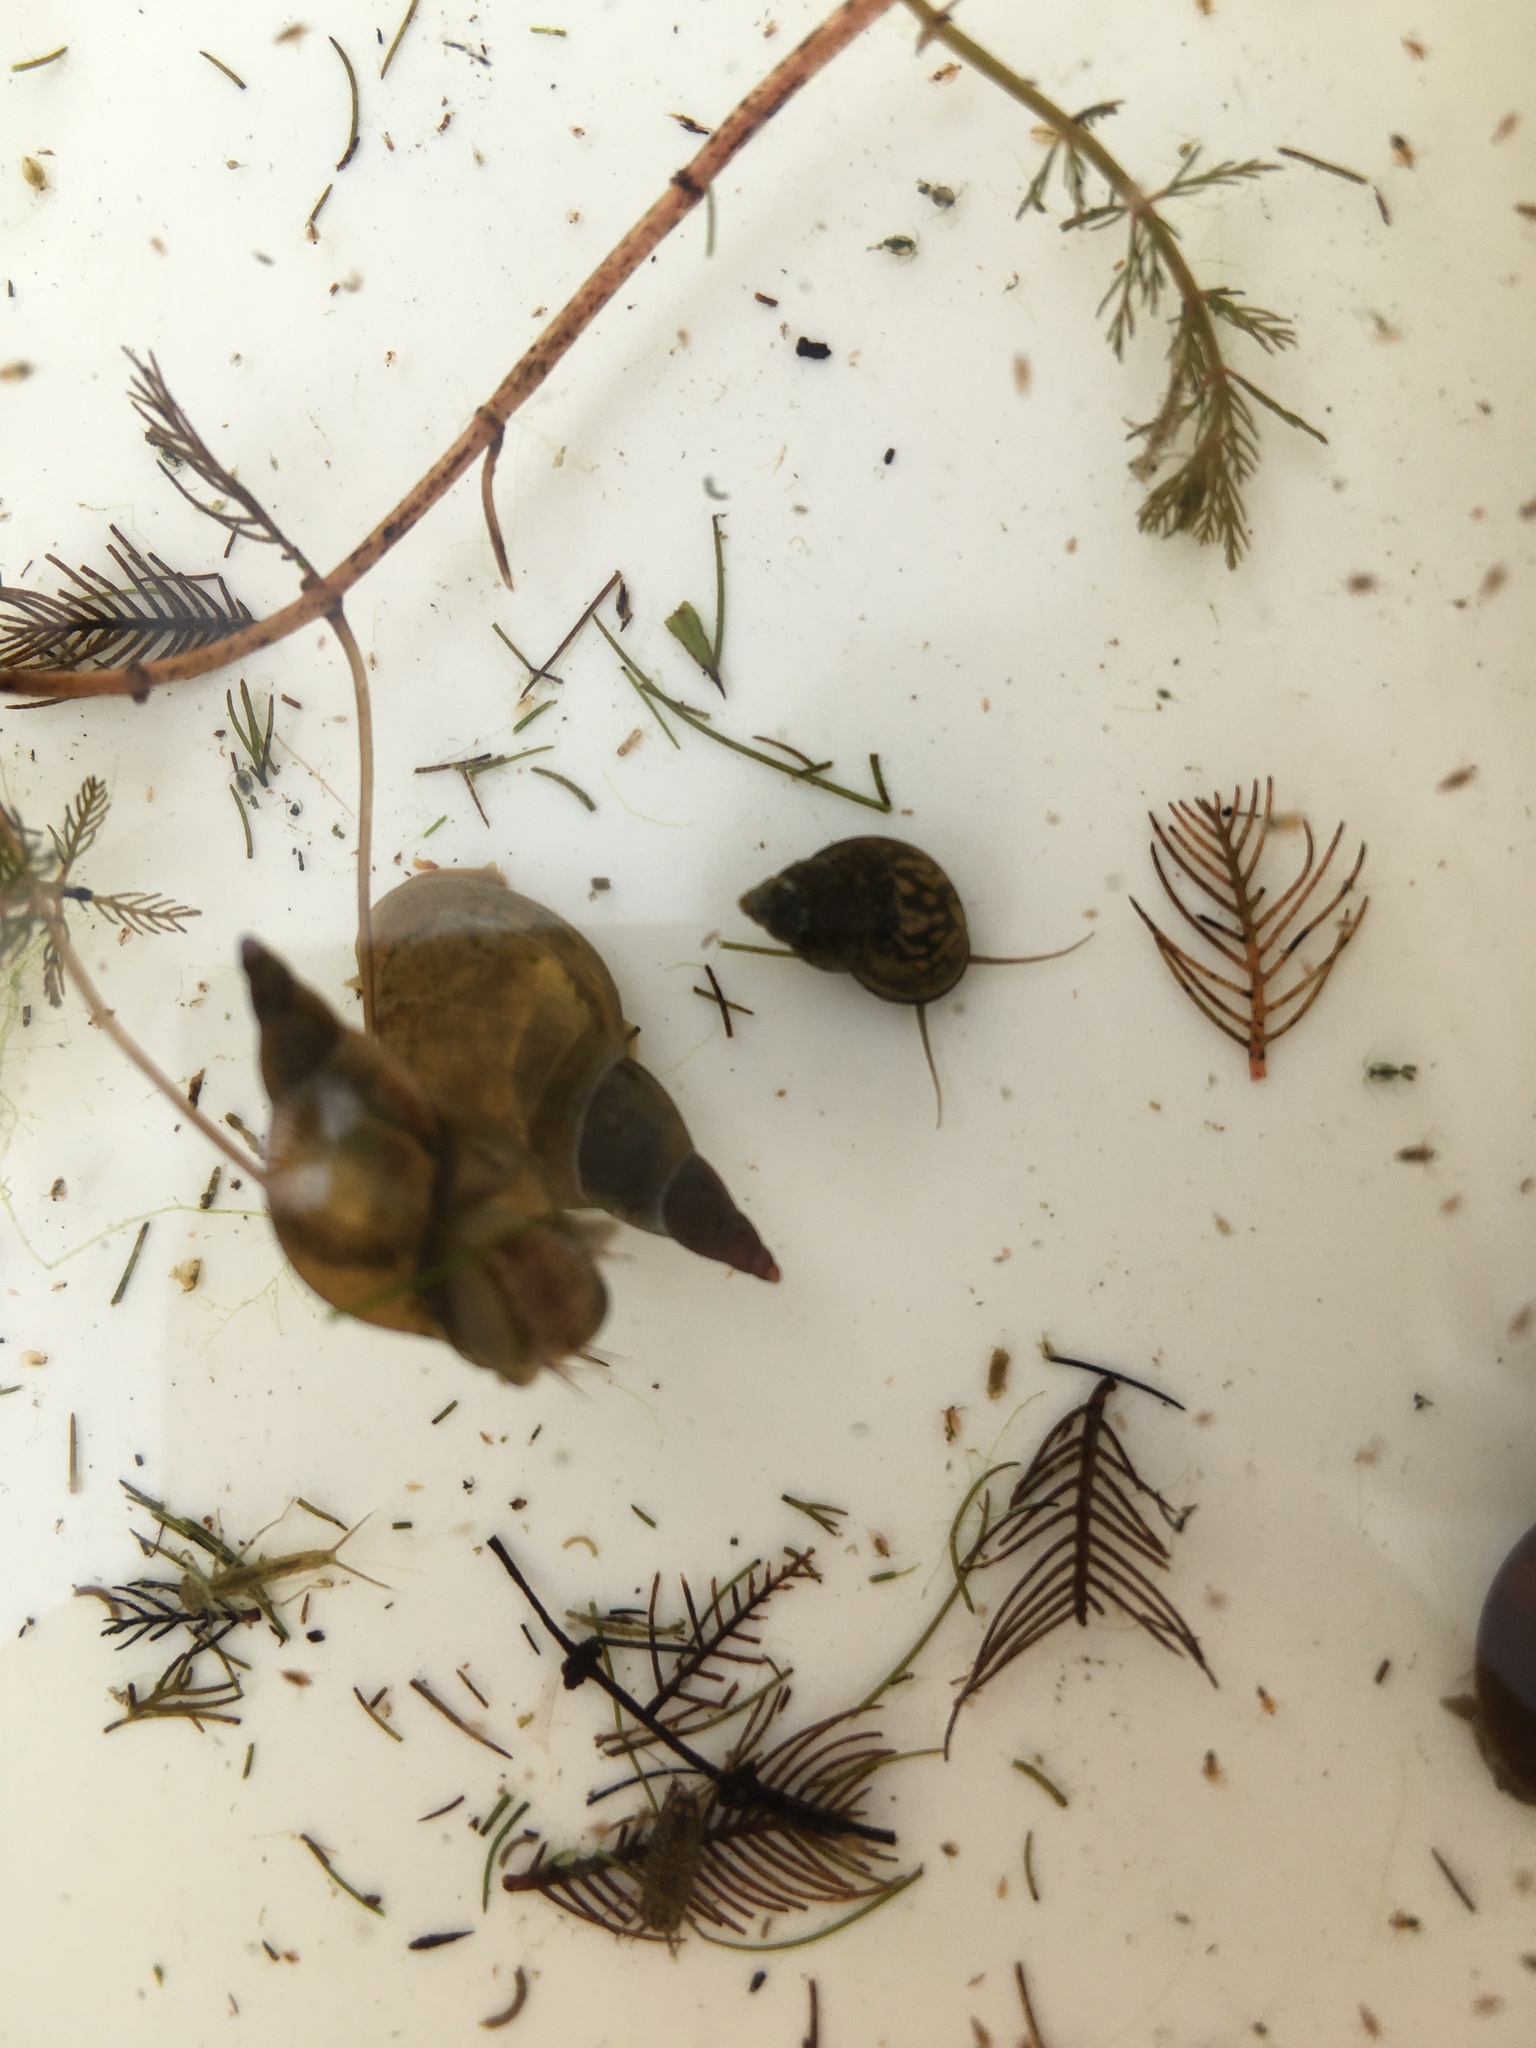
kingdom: Animalia
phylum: Mollusca
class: Gastropoda
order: Littorinimorpha
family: Bithyniidae
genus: Bithynia
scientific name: Bithynia tentaculata
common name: Common bithynia
